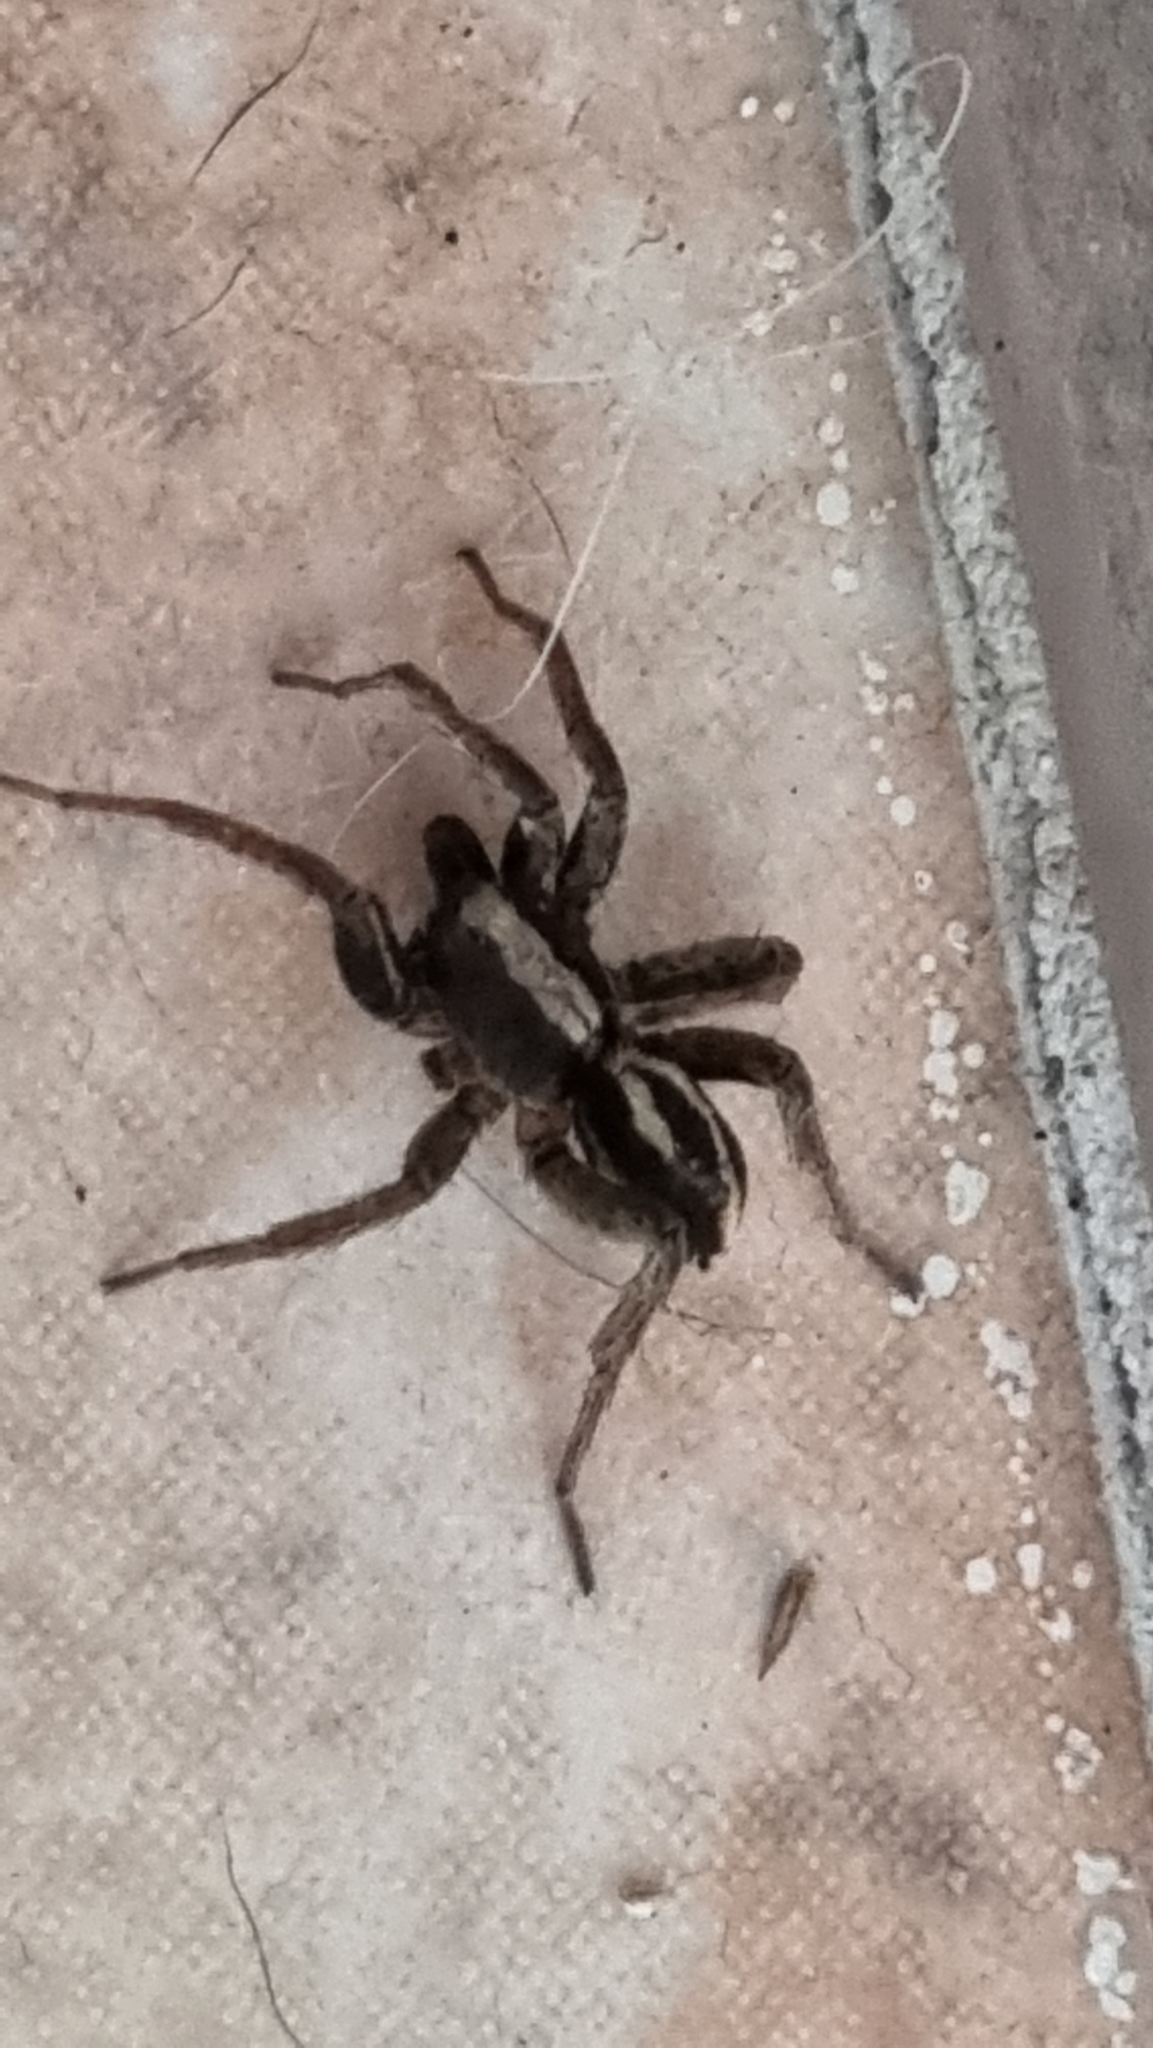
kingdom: Animalia
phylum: Arthropoda
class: Arachnida
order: Araneae
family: Lycosidae
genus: Alopecosa
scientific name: Alopecosa albofasciata
